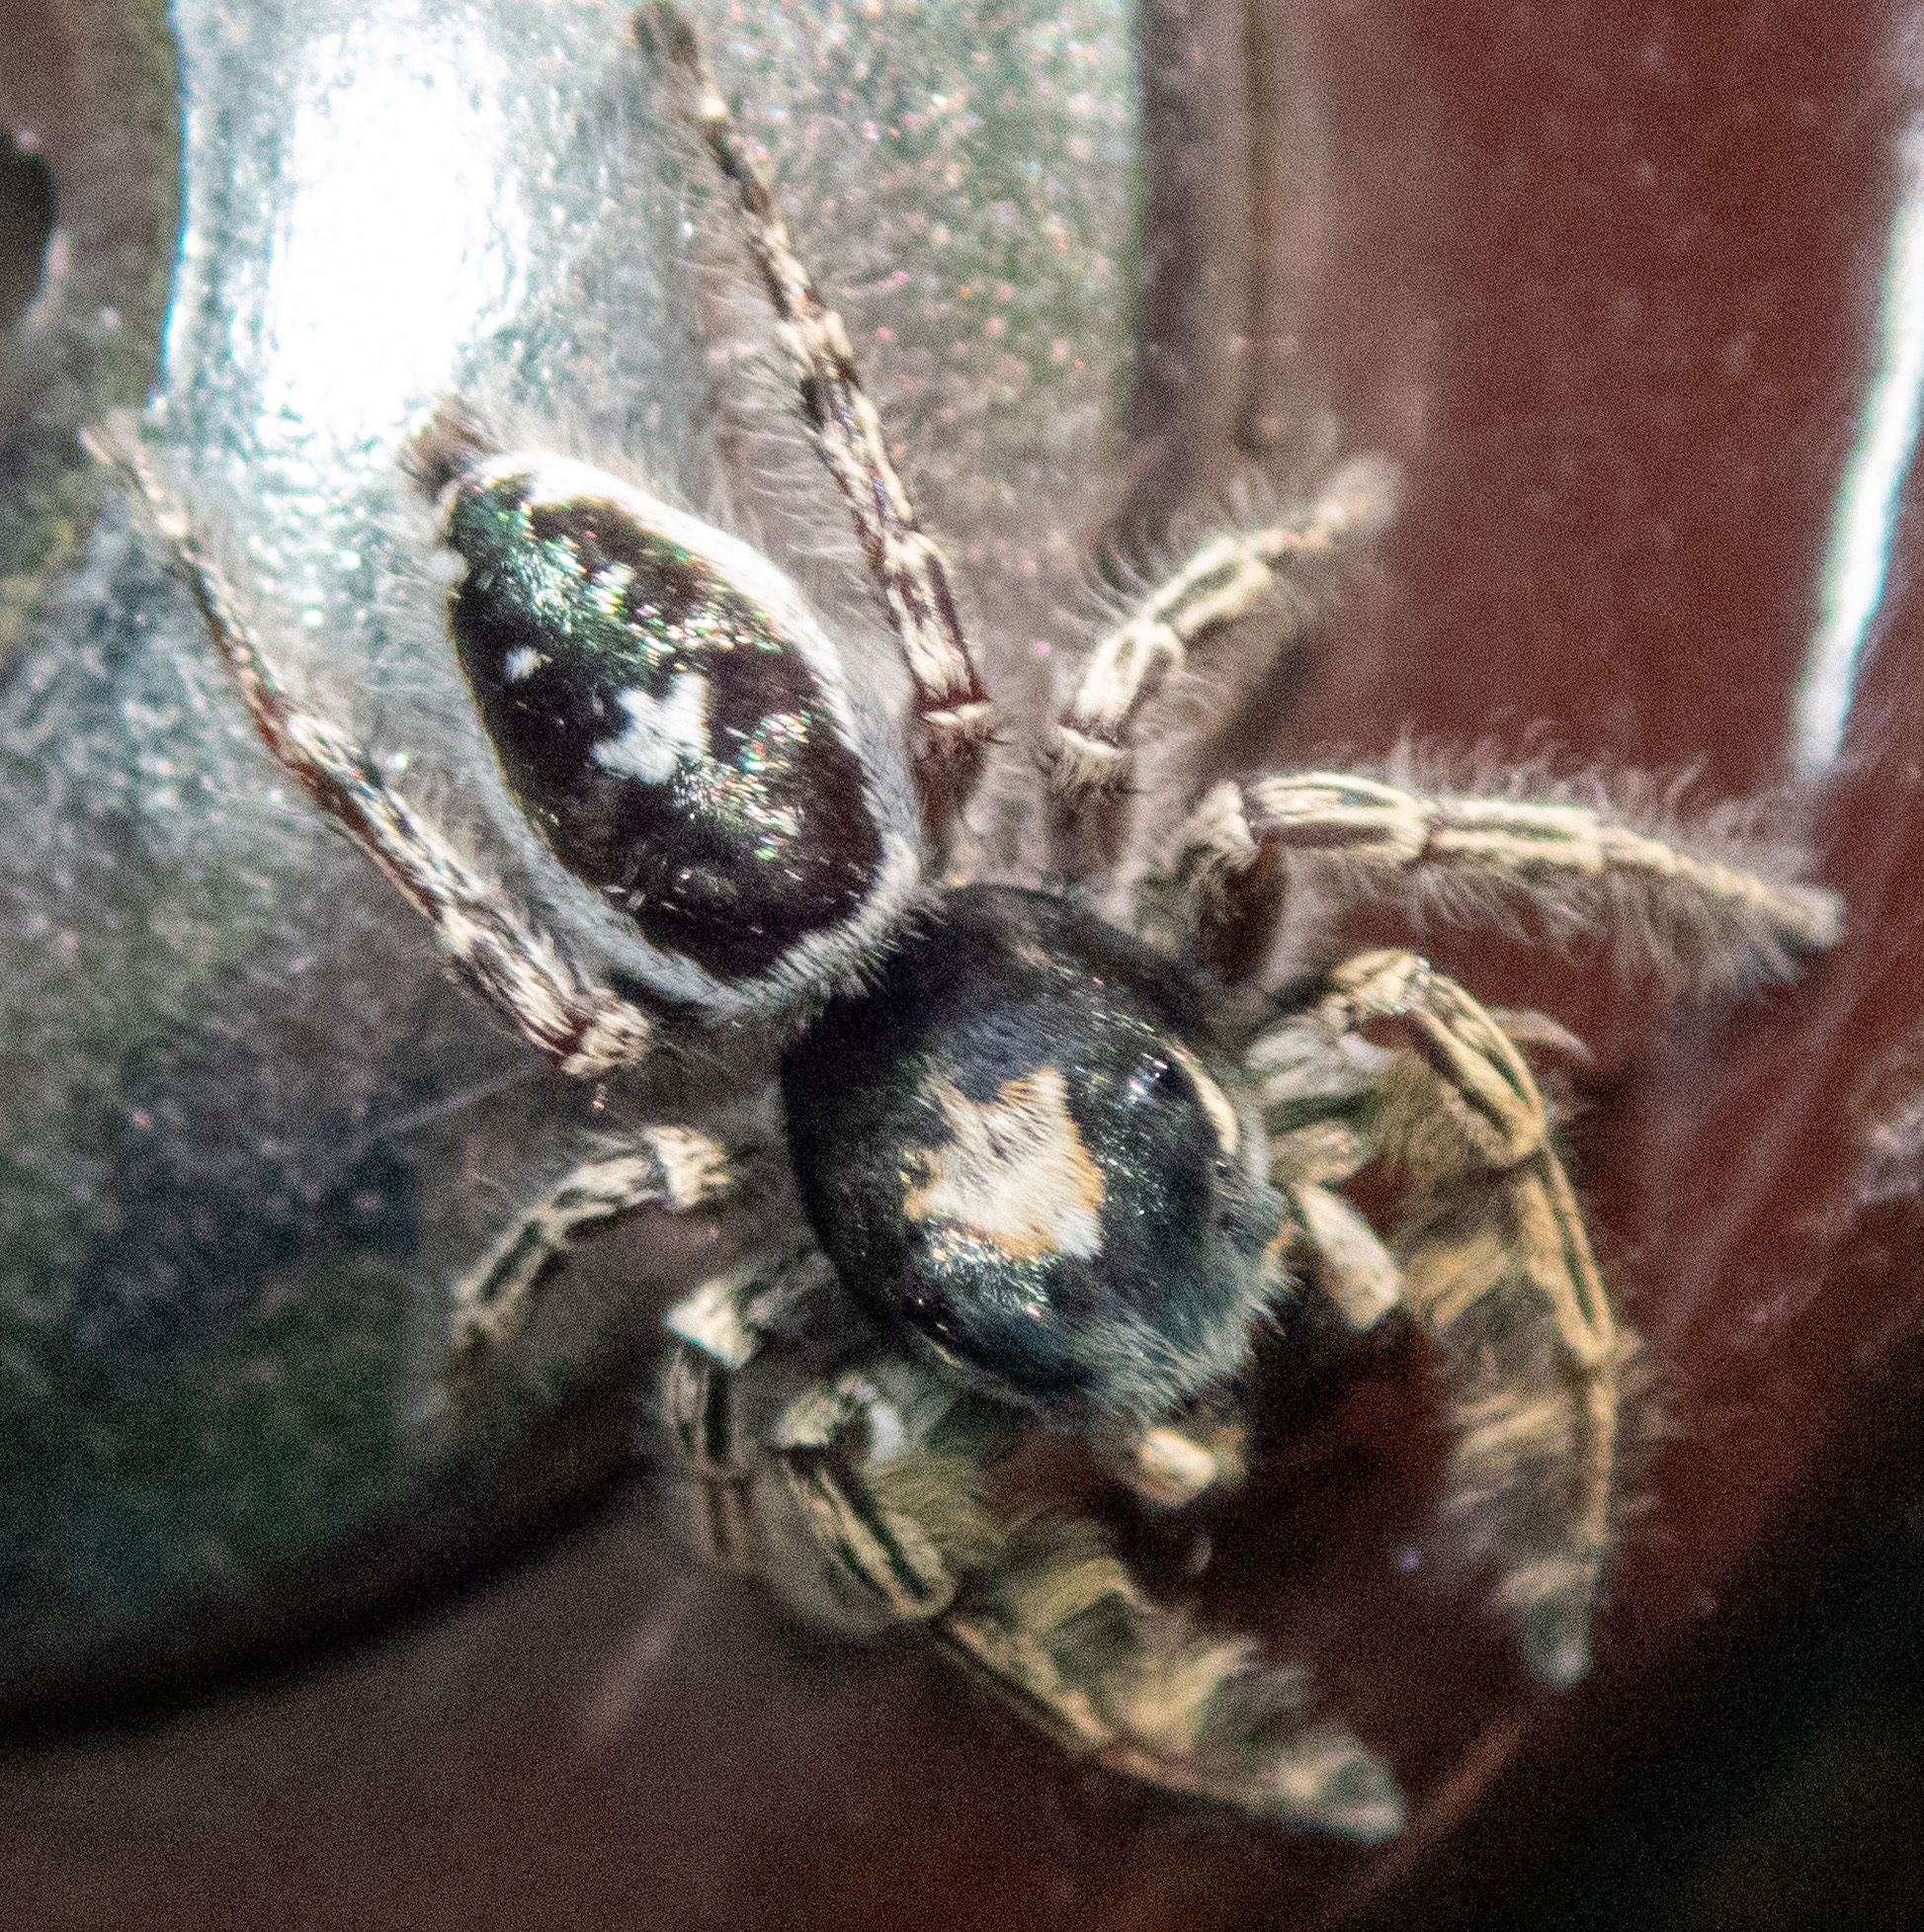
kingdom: Animalia
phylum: Arthropoda
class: Arachnida
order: Araneae
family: Salticidae
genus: Phidippus
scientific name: Phidippus putnami
